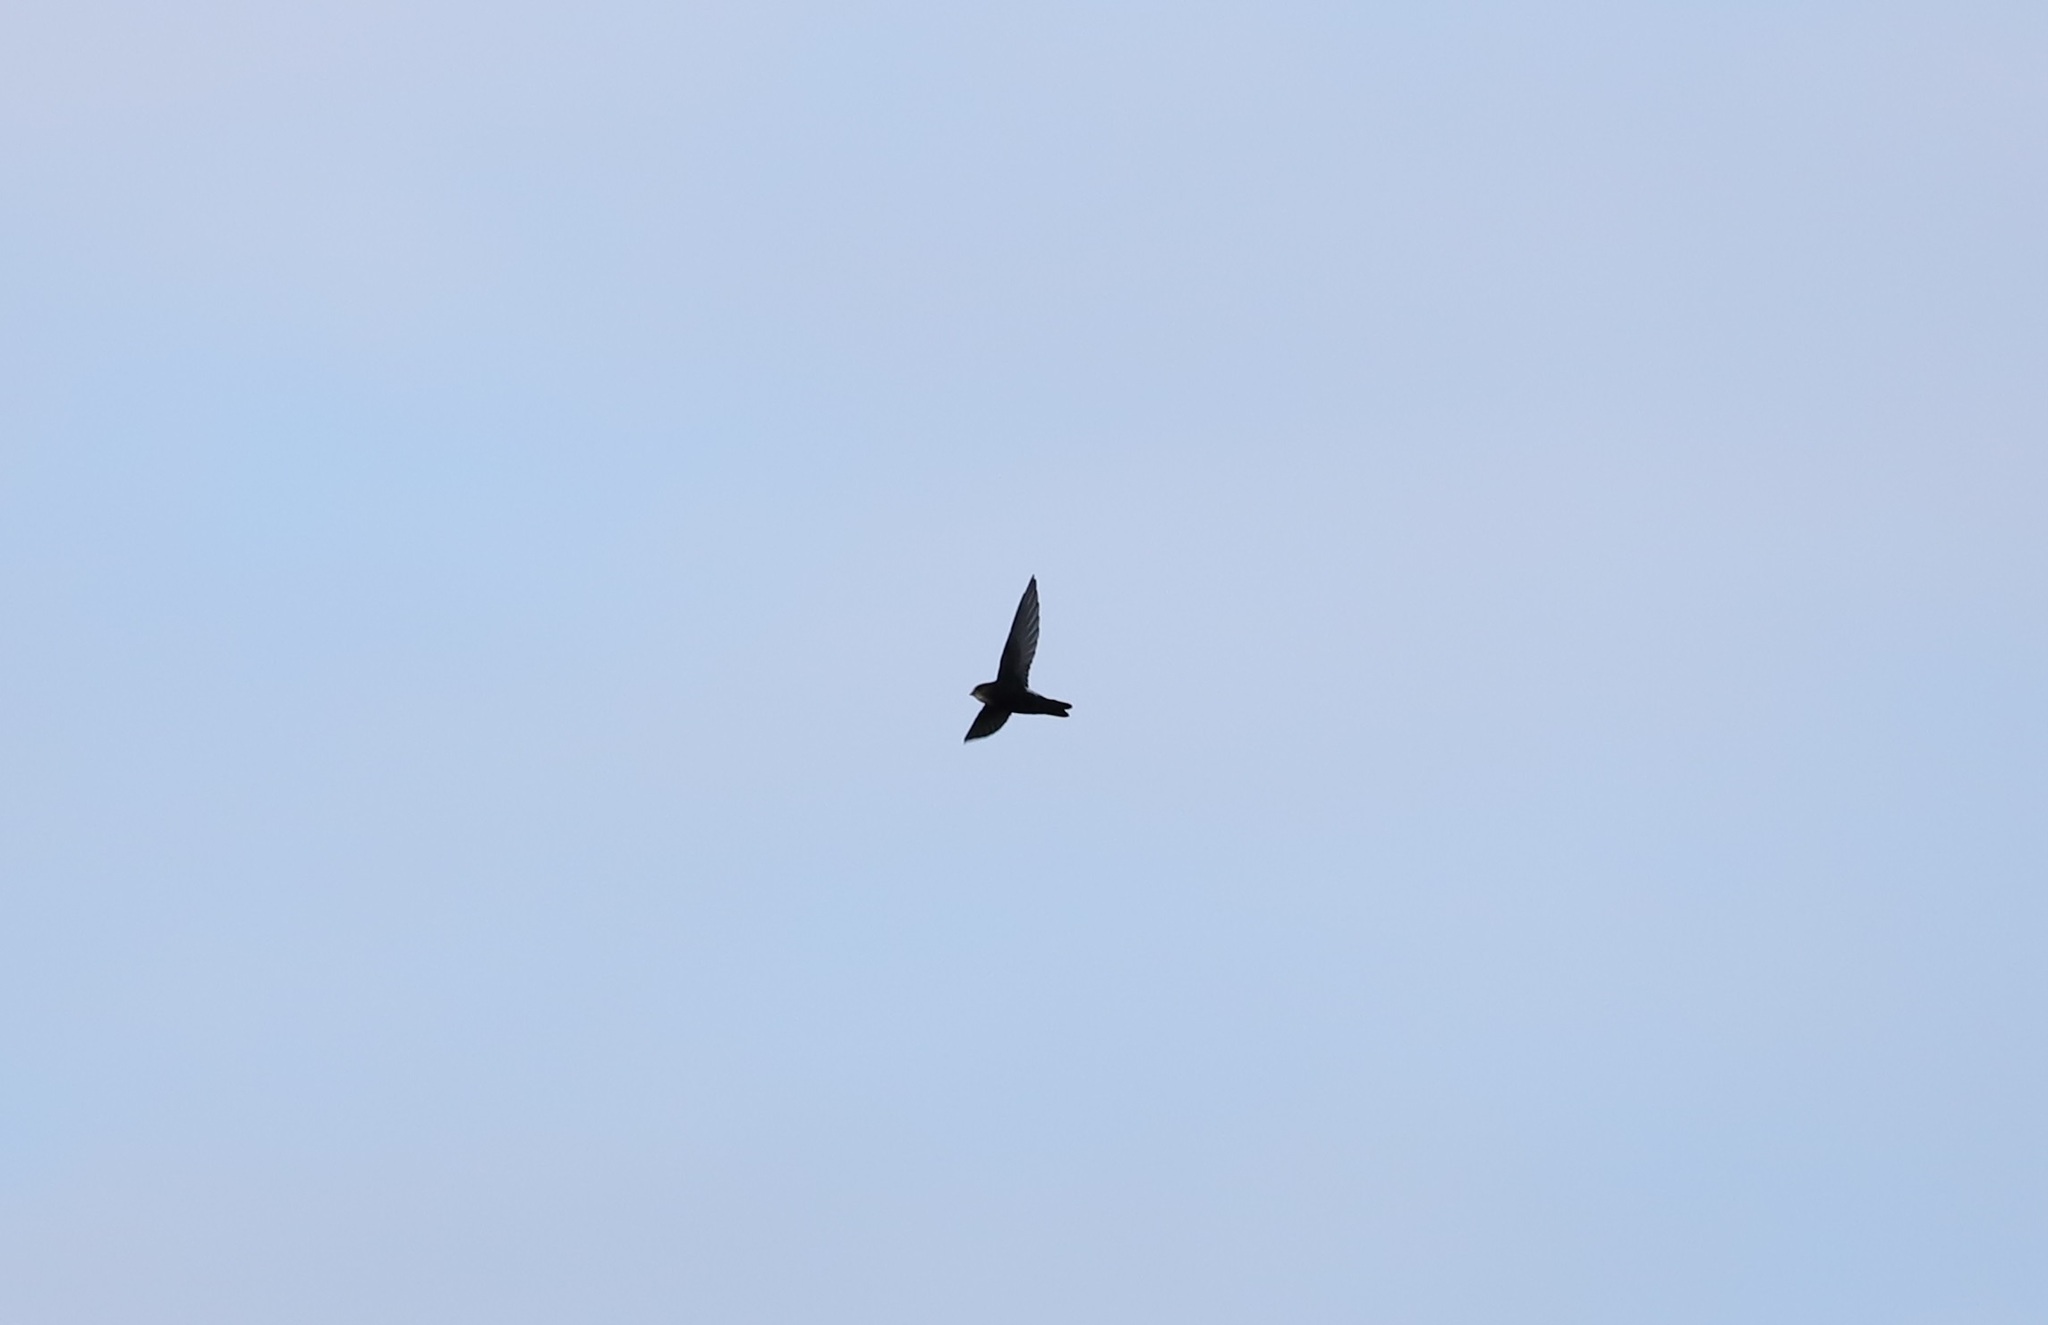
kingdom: Animalia
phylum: Chordata
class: Aves
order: Apodiformes
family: Apodidae
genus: Apus
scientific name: Apus nipalensis
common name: House swift
